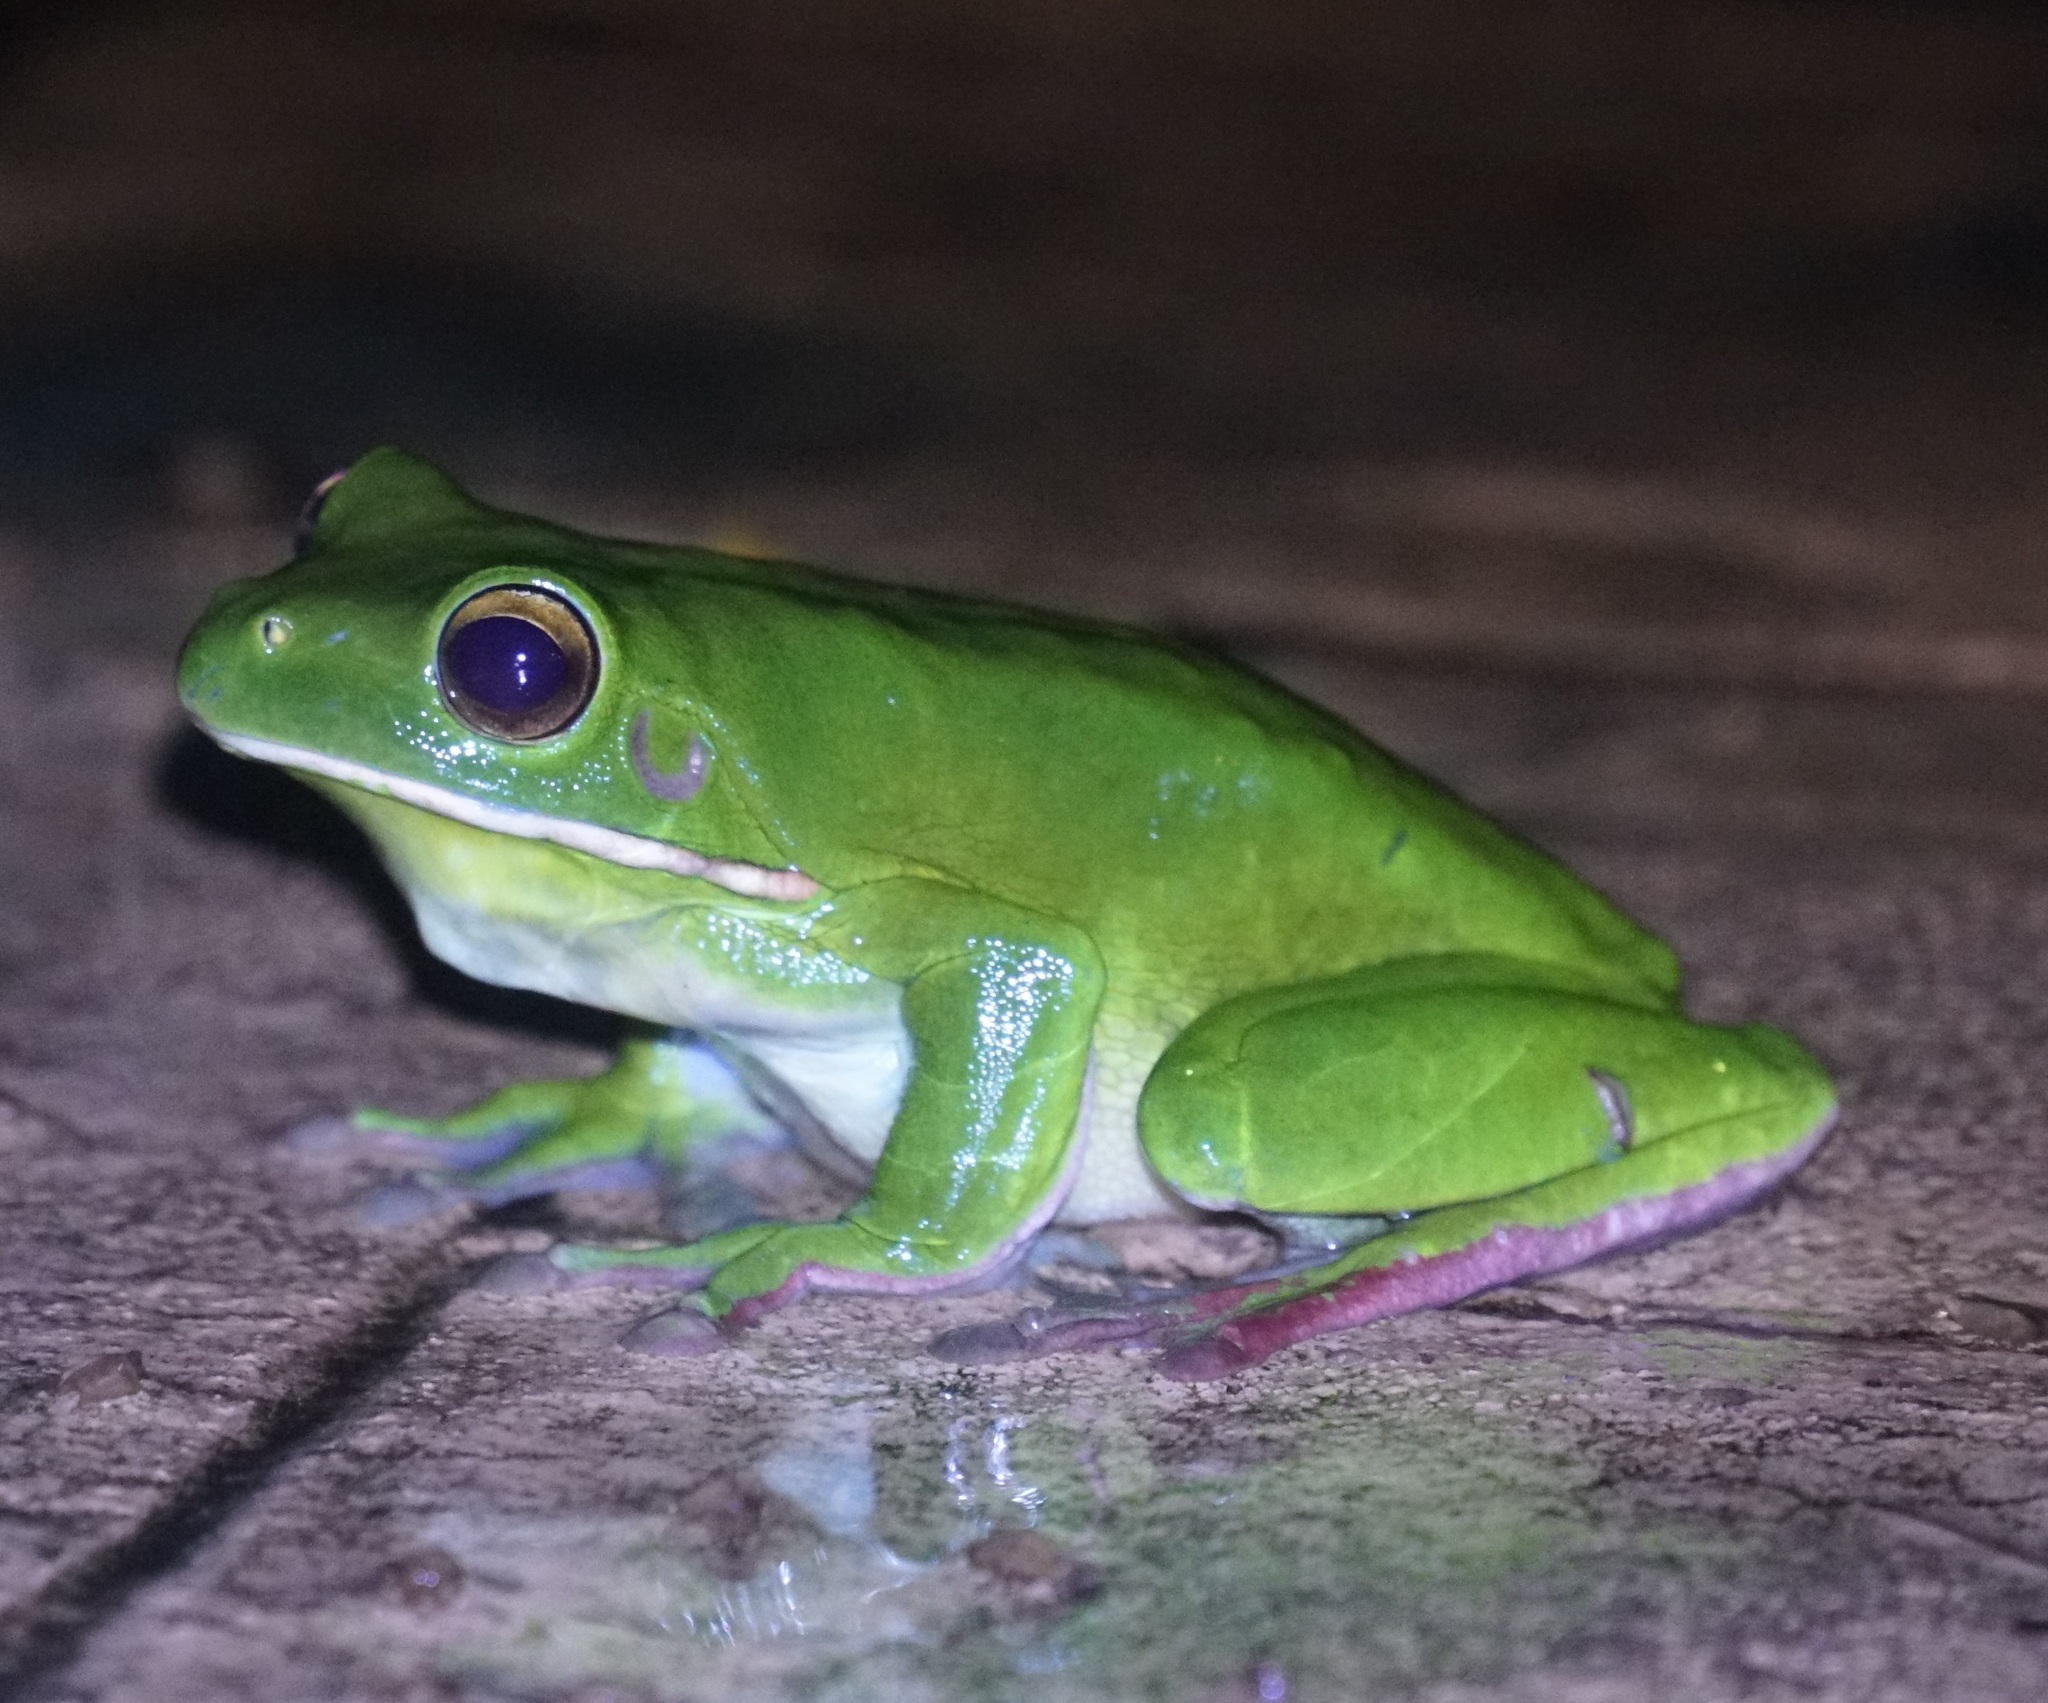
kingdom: Animalia
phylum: Chordata
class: Amphibia
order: Anura
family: Pelodryadidae
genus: Nyctimystes
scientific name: Nyctimystes infrafrenatus
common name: Australian giant treefrog
